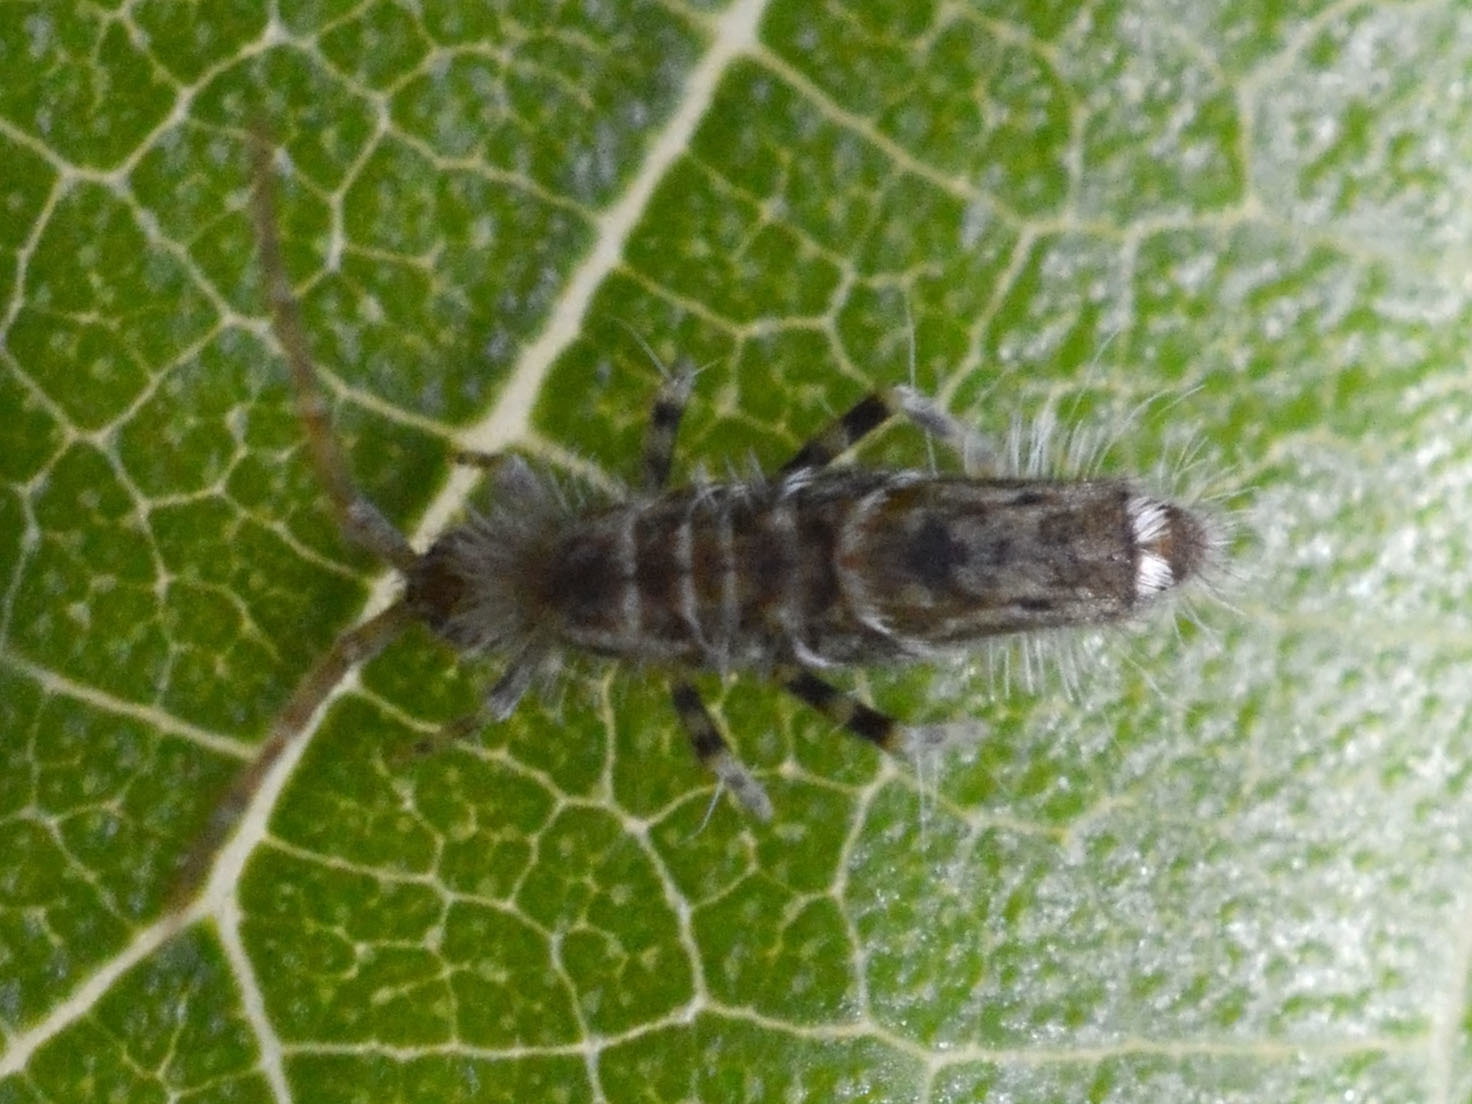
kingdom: Animalia
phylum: Arthropoda
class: Collembola
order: Entomobryomorpha
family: Entomobryidae
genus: Entomobrya
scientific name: Entomobrya dorsalis
